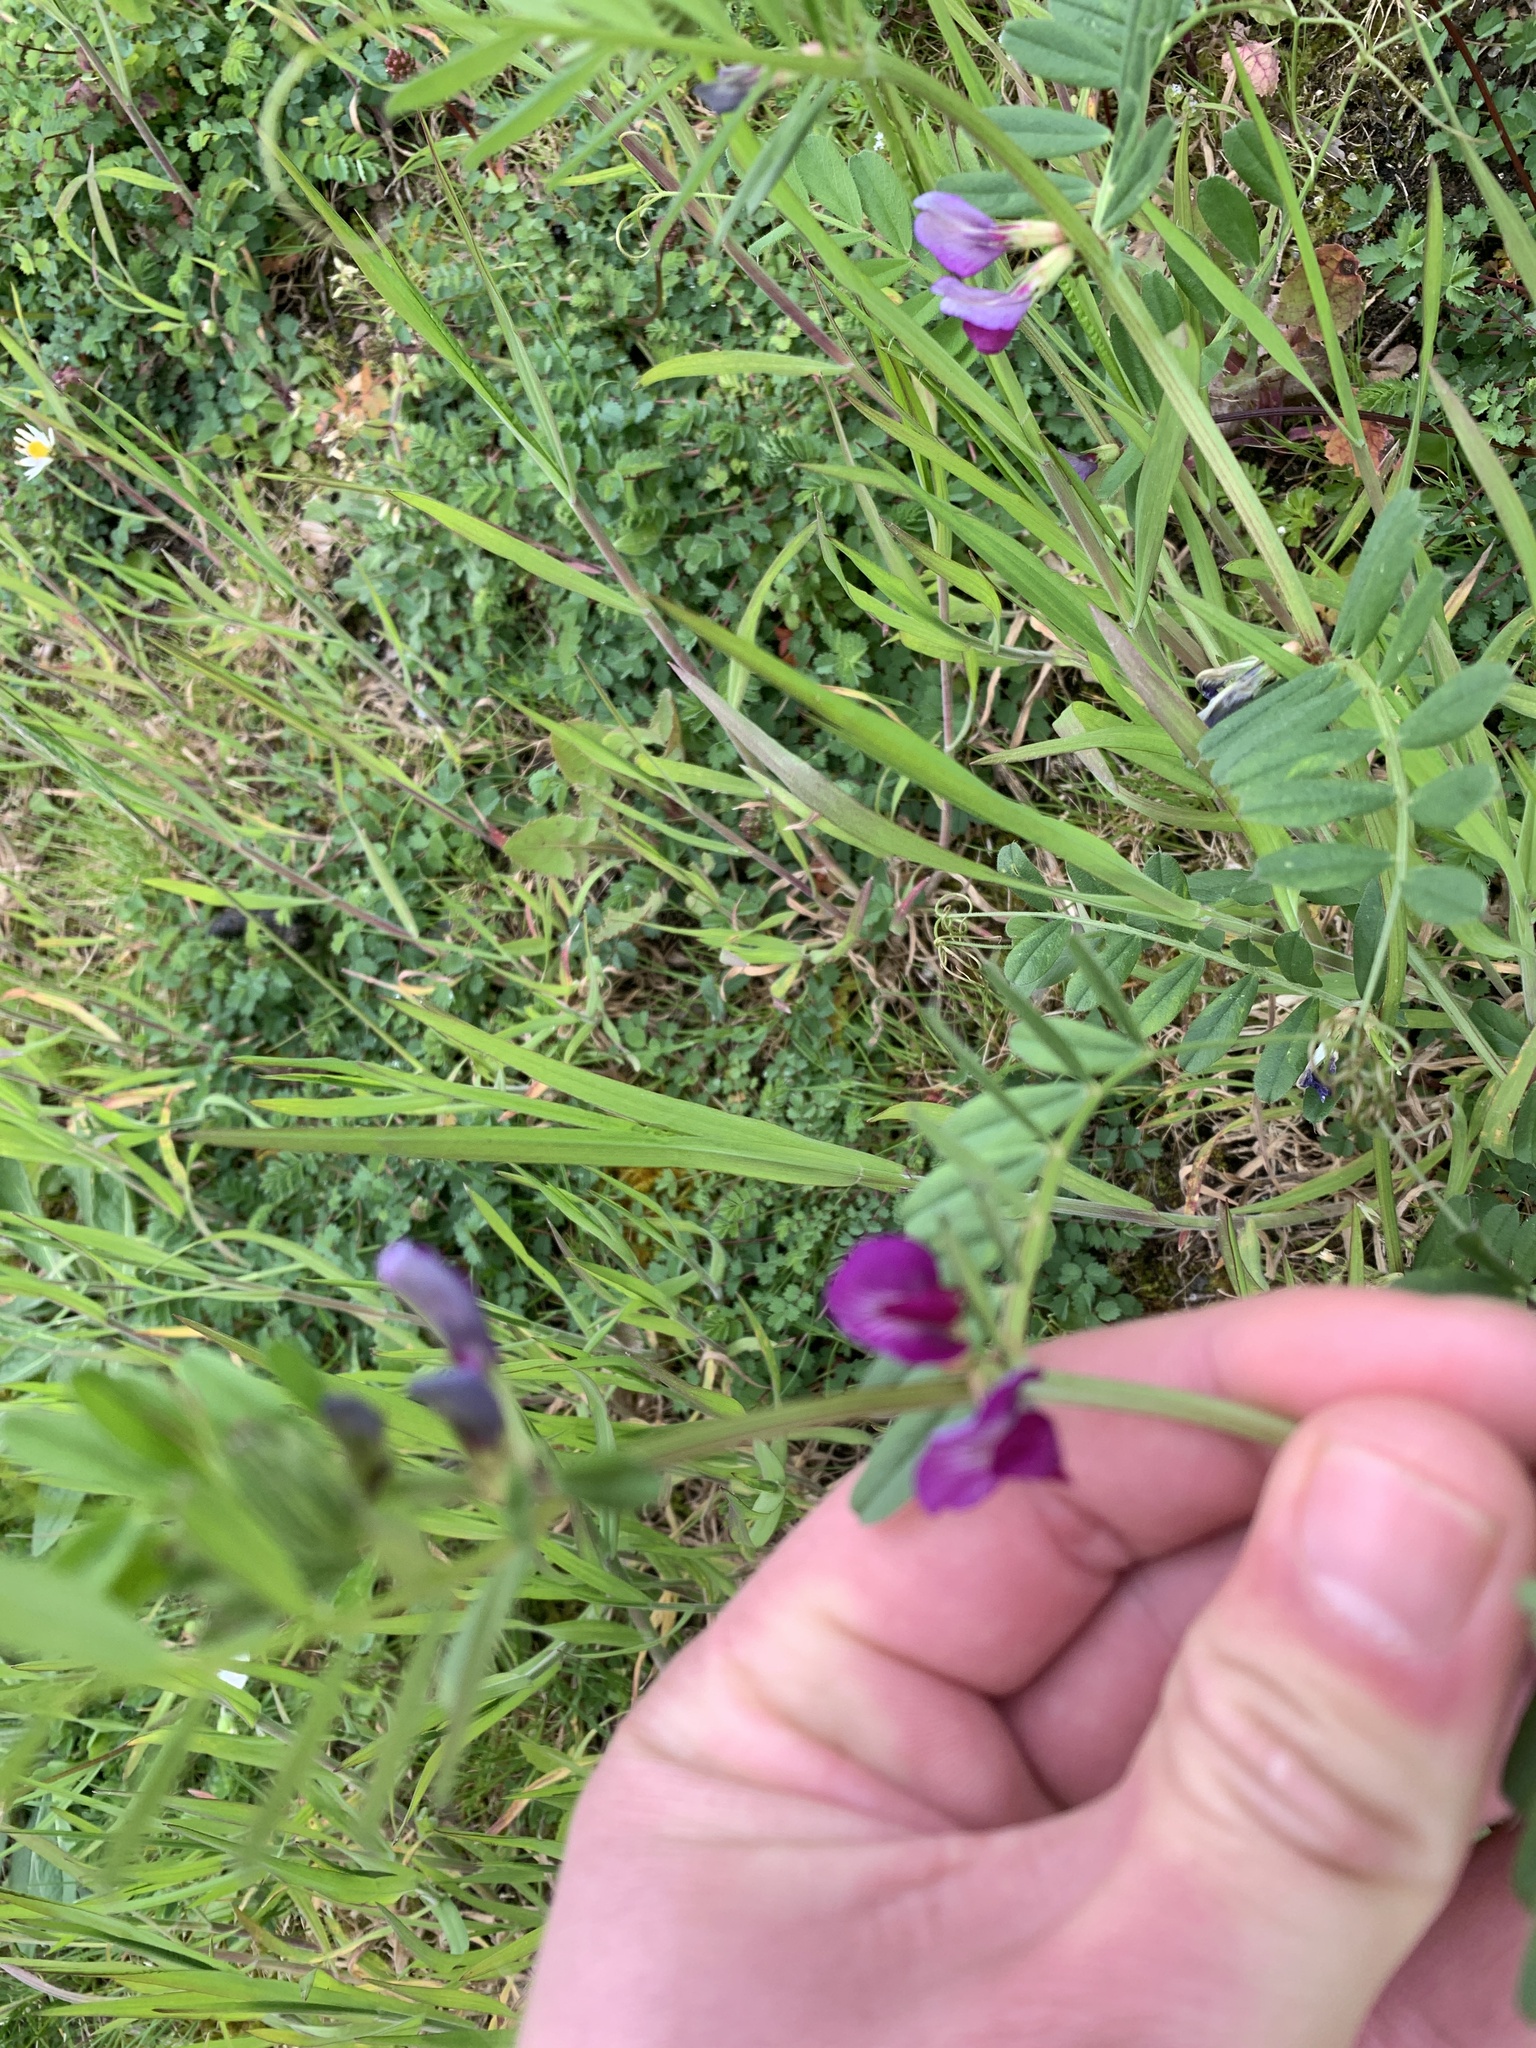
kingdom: Plantae
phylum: Tracheophyta
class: Magnoliopsida
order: Fabales
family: Fabaceae
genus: Vicia
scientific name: Vicia sativa
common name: Garden vetch
